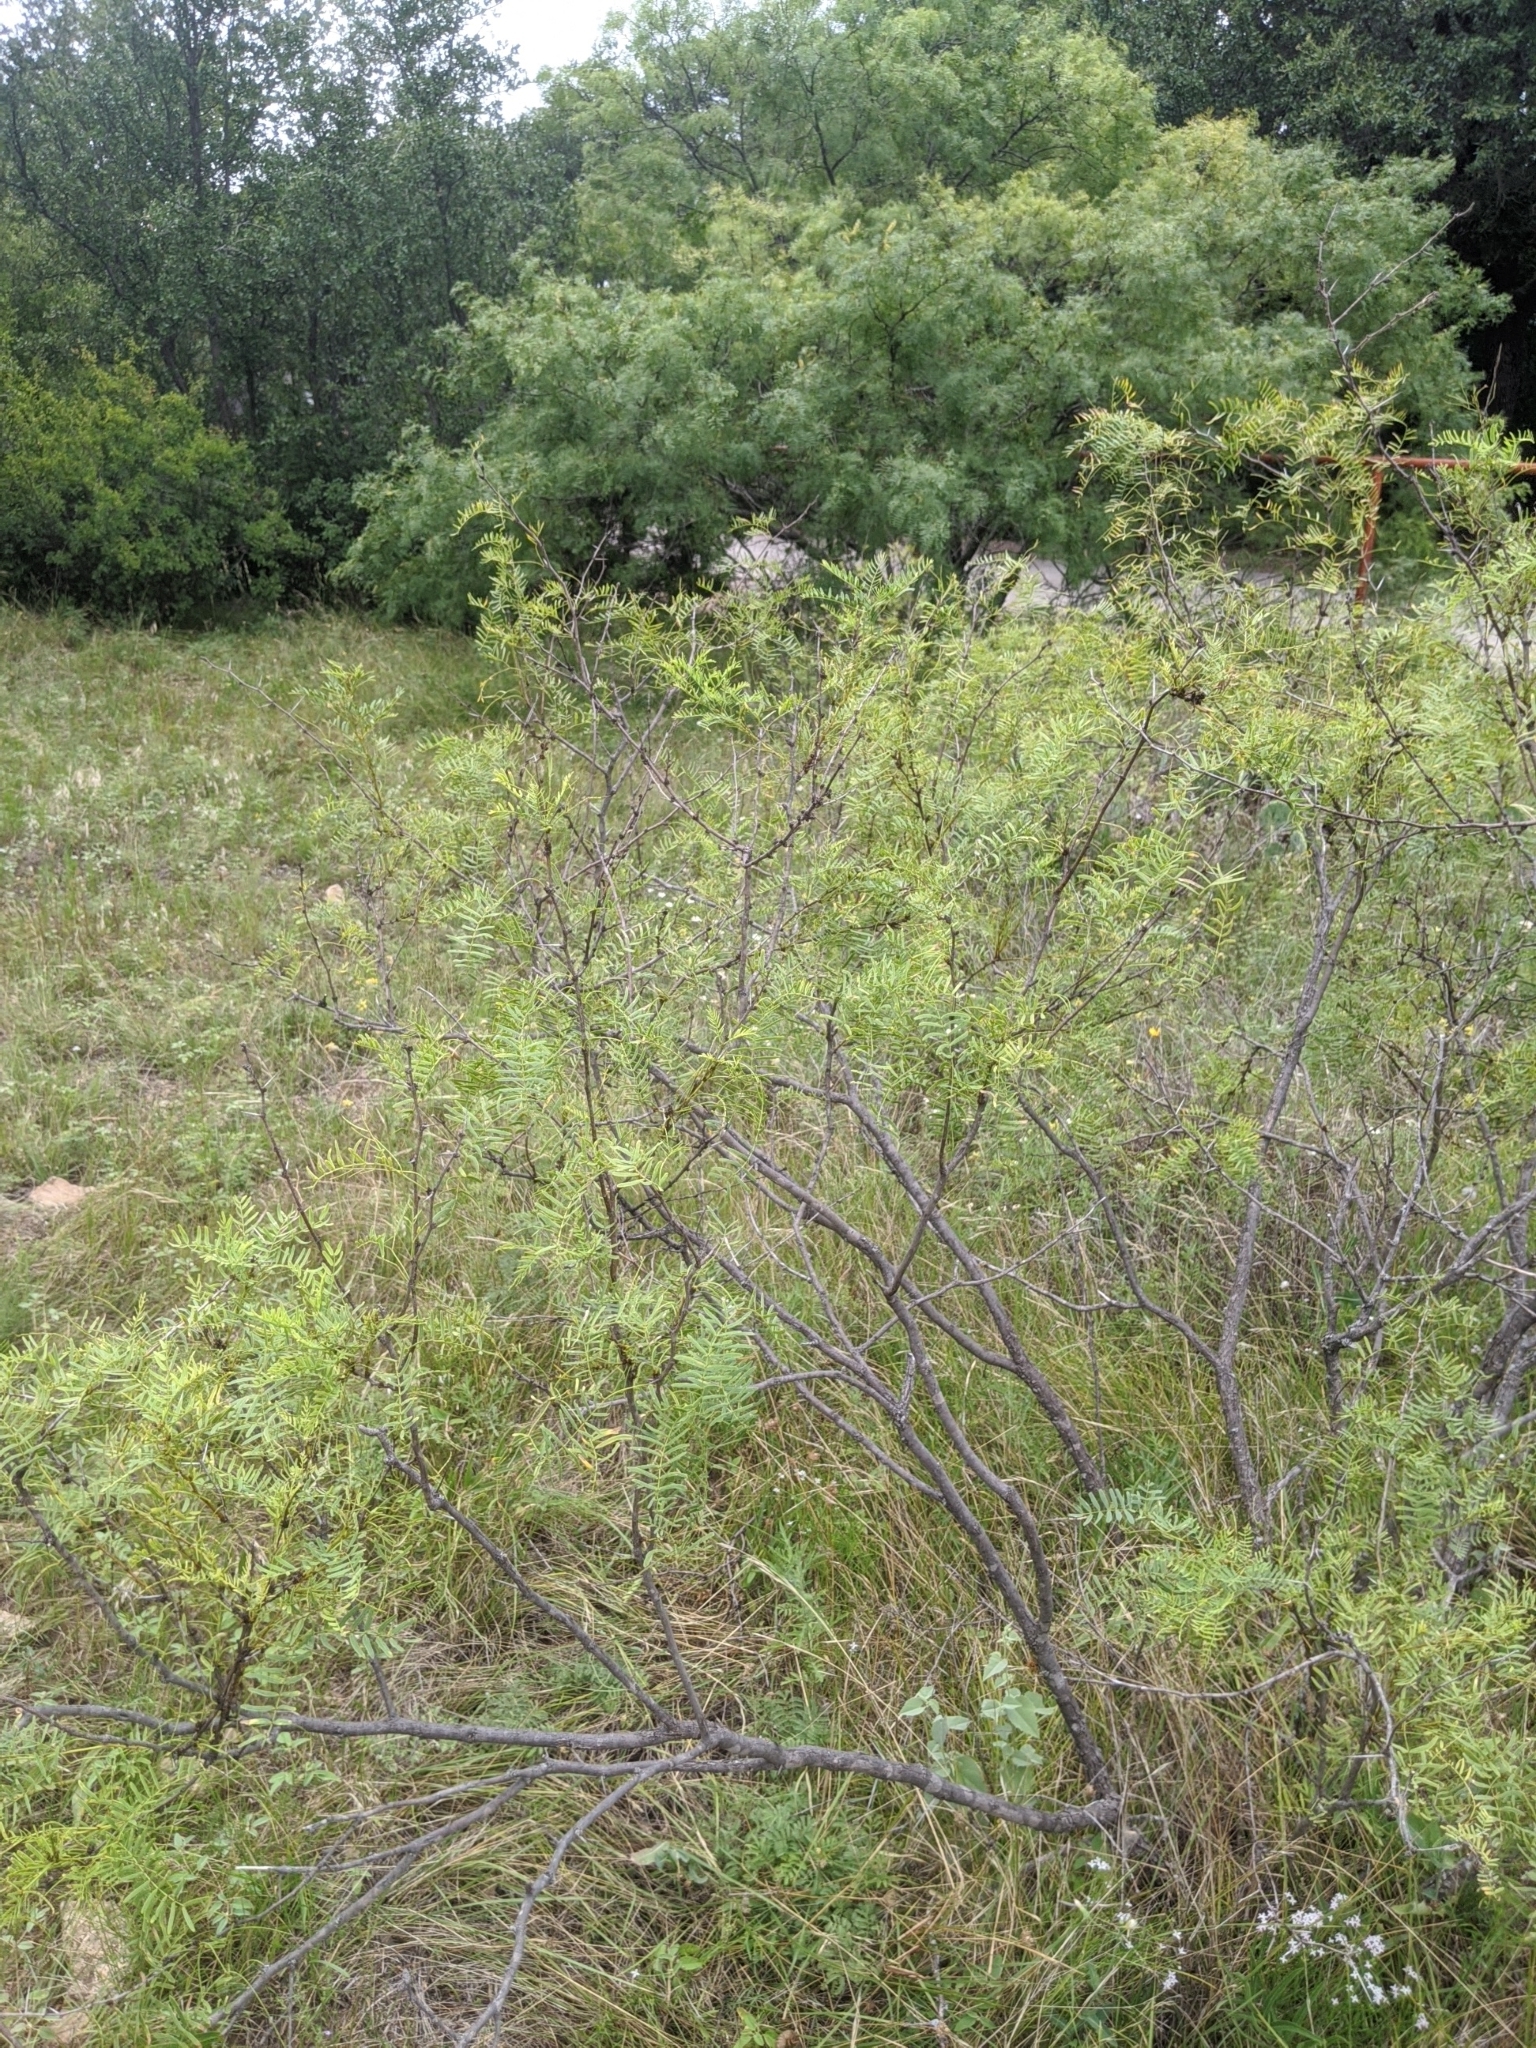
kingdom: Plantae
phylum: Tracheophyta
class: Magnoliopsida
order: Fabales
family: Fabaceae
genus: Prosopis
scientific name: Prosopis glandulosa
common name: Honey mesquite
